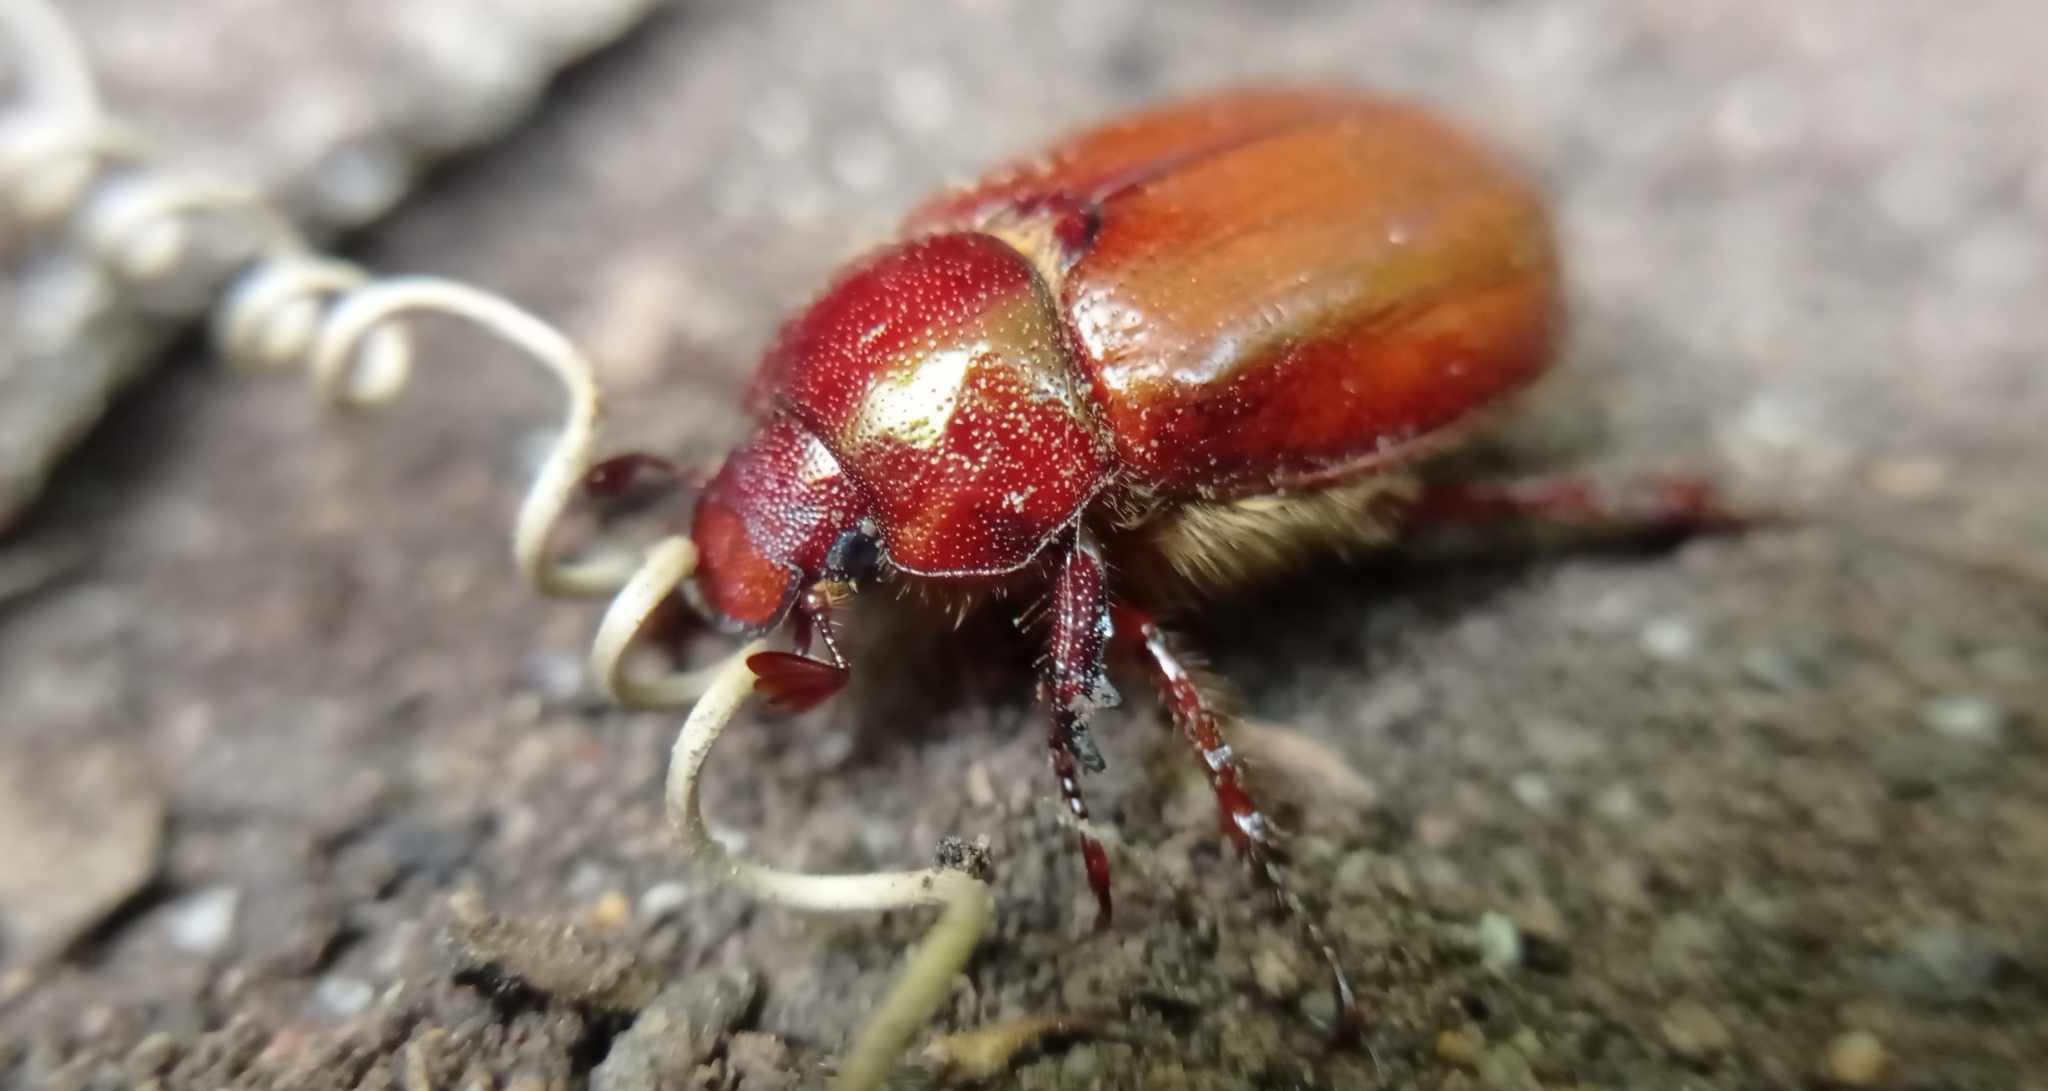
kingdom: Animalia
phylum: Arthropoda
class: Insecta
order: Coleoptera
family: Scarabaeidae
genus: Aulacopalpus
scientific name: Aulacopalpus ciliatus
